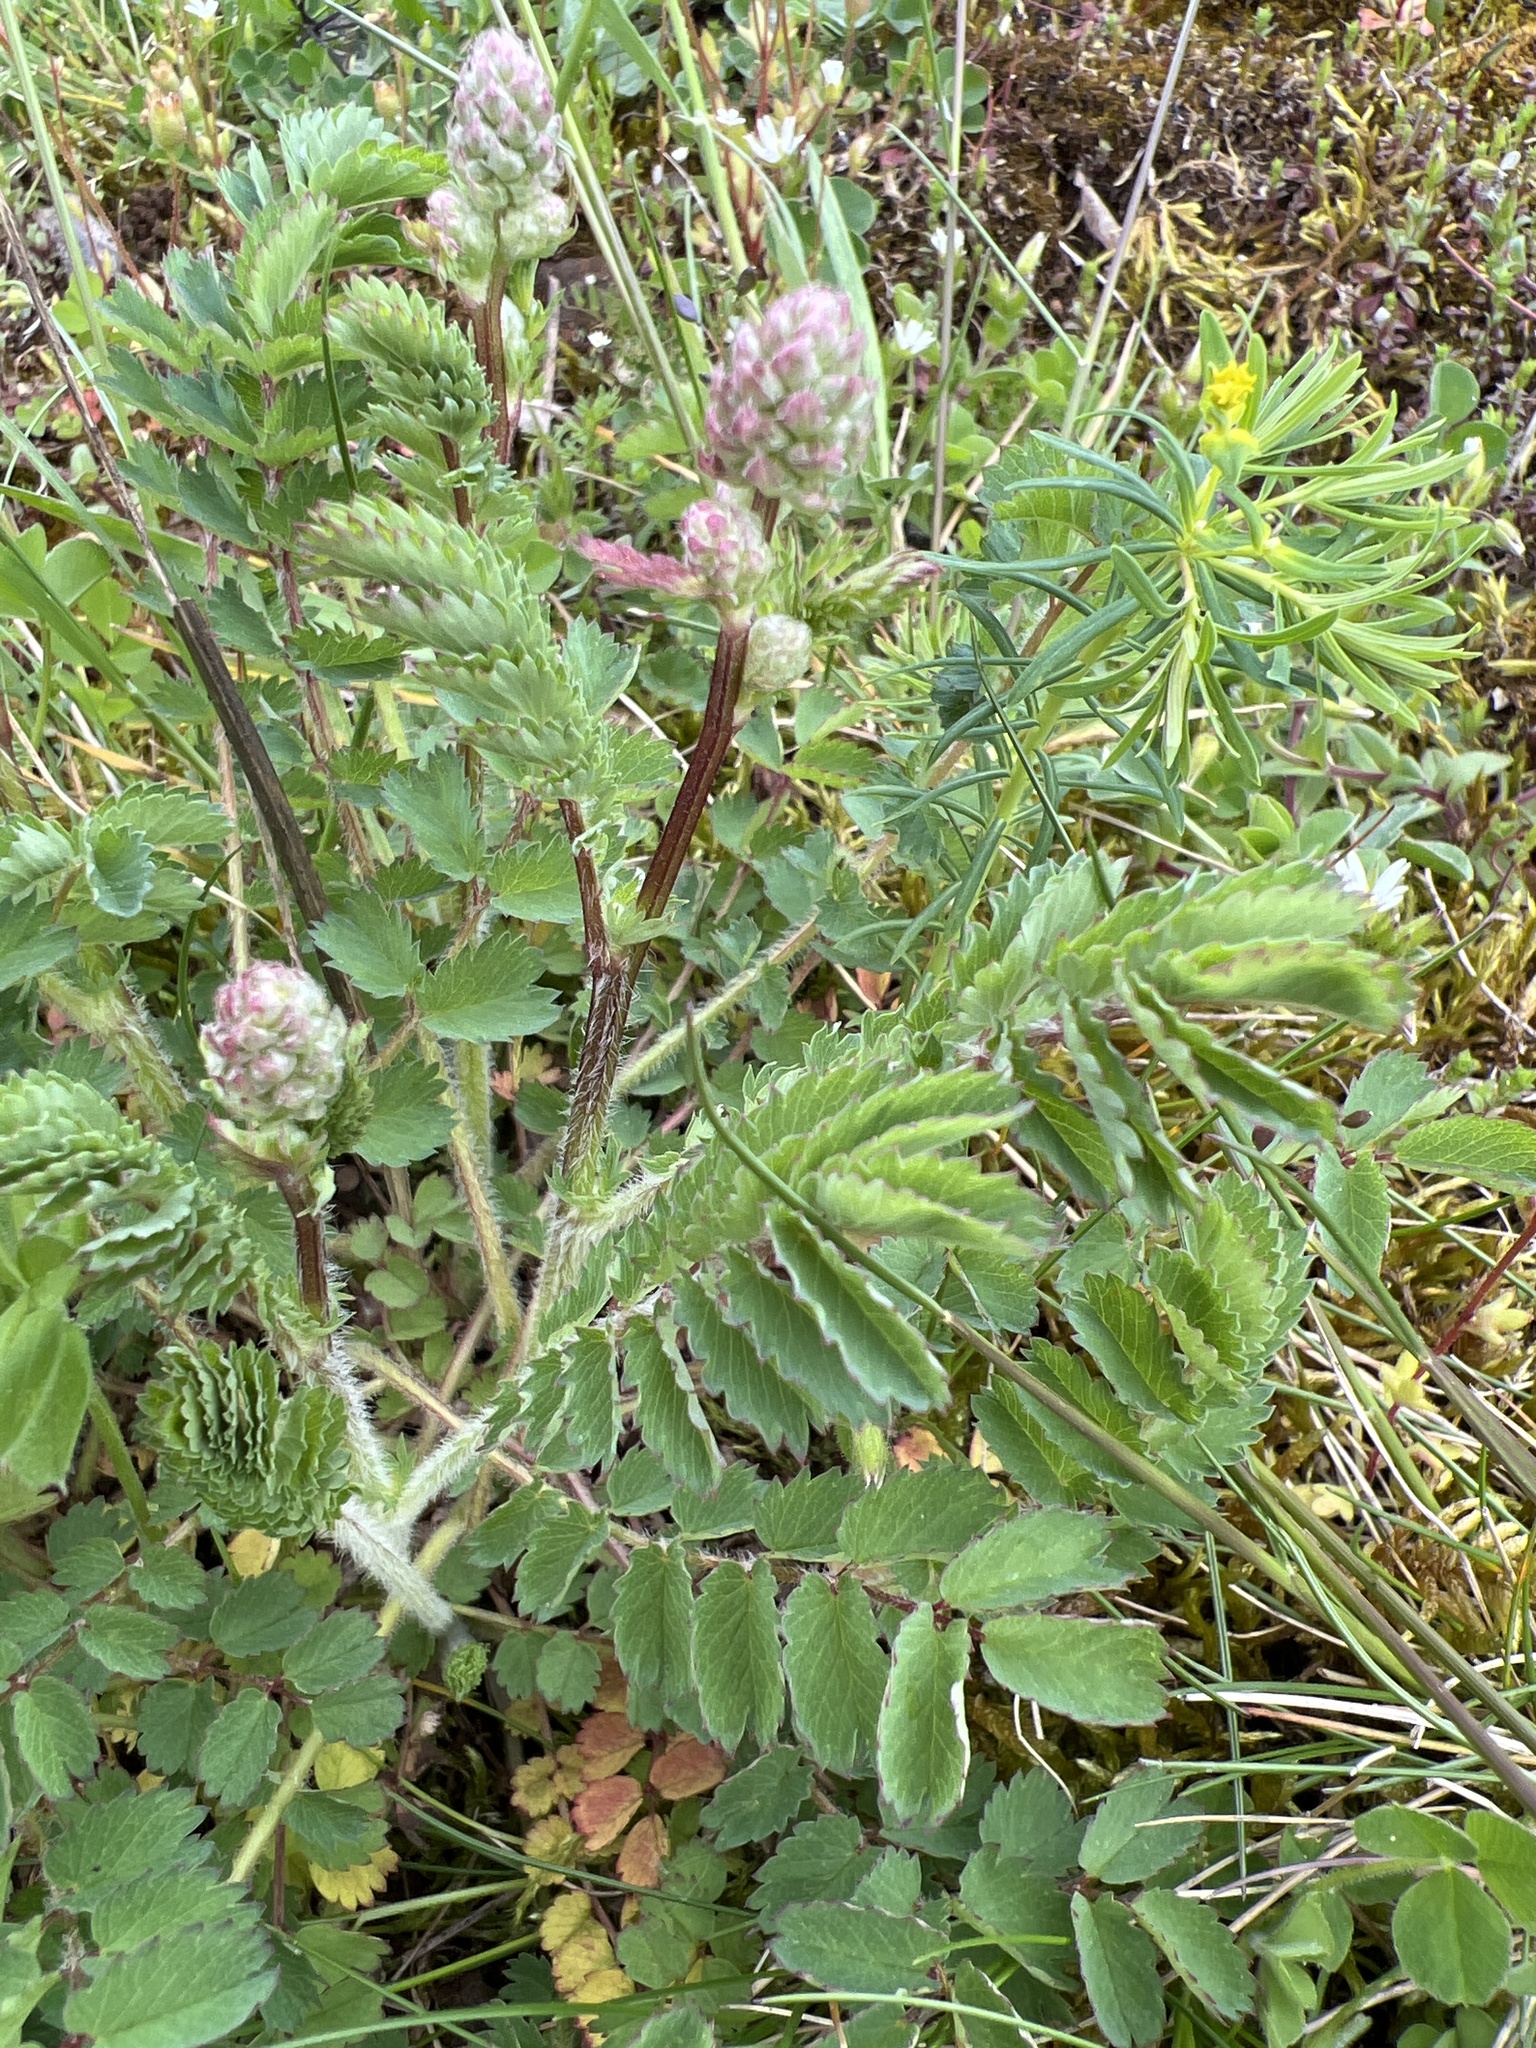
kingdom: Plantae
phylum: Tracheophyta
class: Magnoliopsida
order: Rosales
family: Rosaceae
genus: Poterium
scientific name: Poterium sanguisorba
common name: Salad burnet
